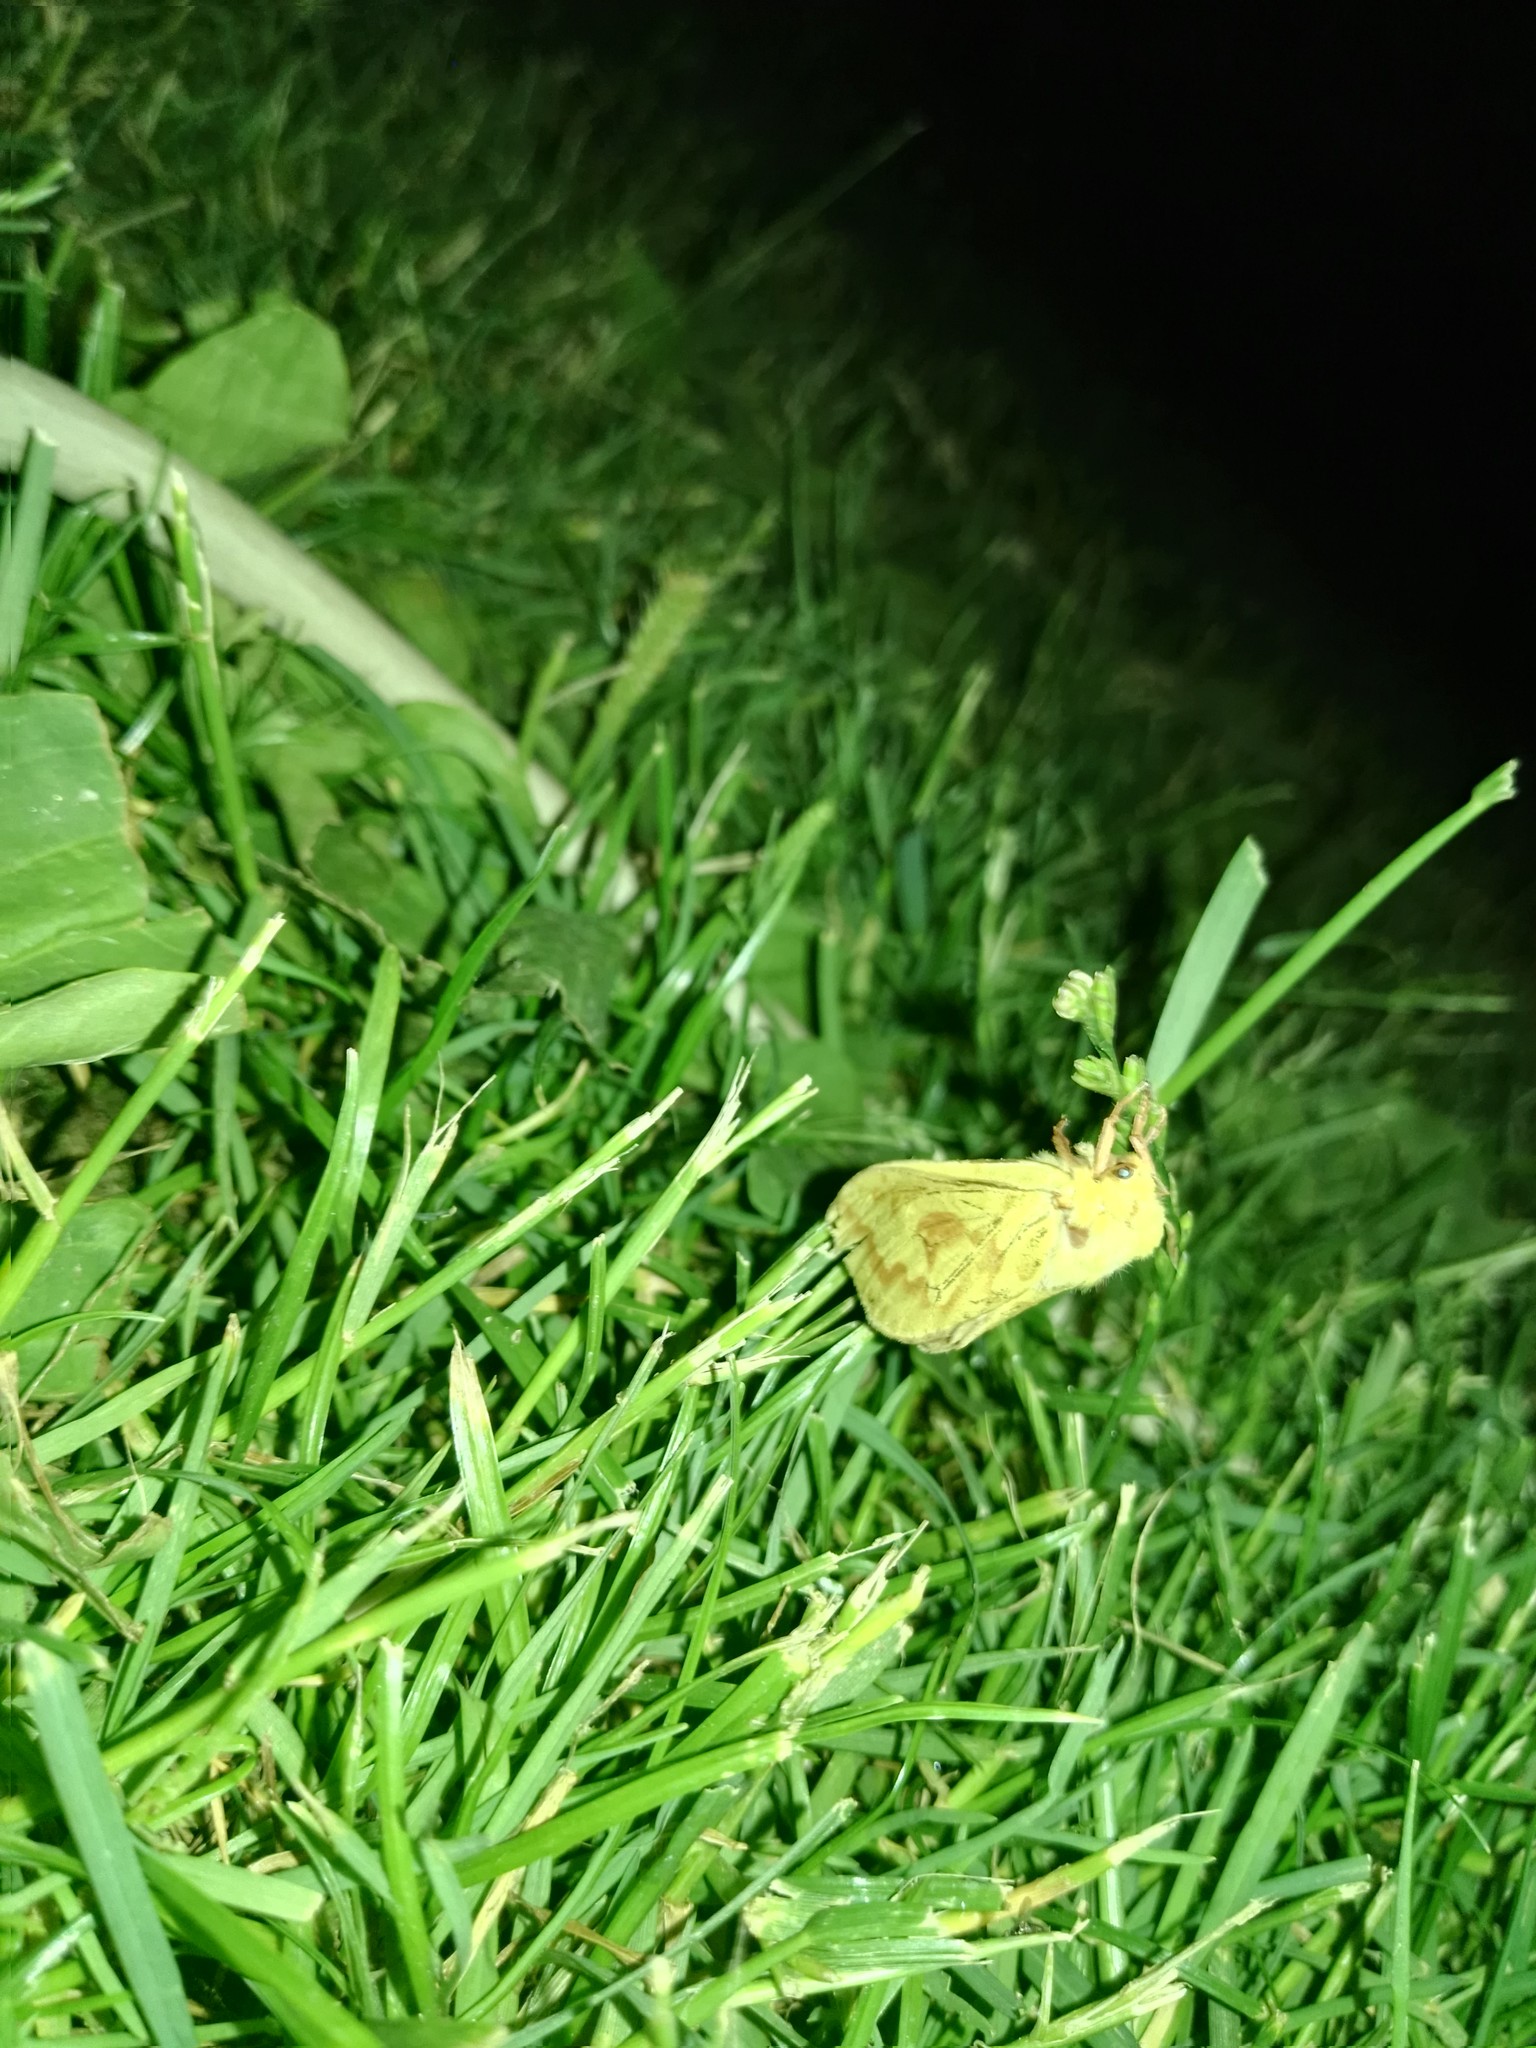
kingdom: Animalia
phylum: Arthropoda
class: Insecta
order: Lepidoptera
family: Hepialidae
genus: Hepialus
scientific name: Hepialus humuli
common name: Ghost moth
